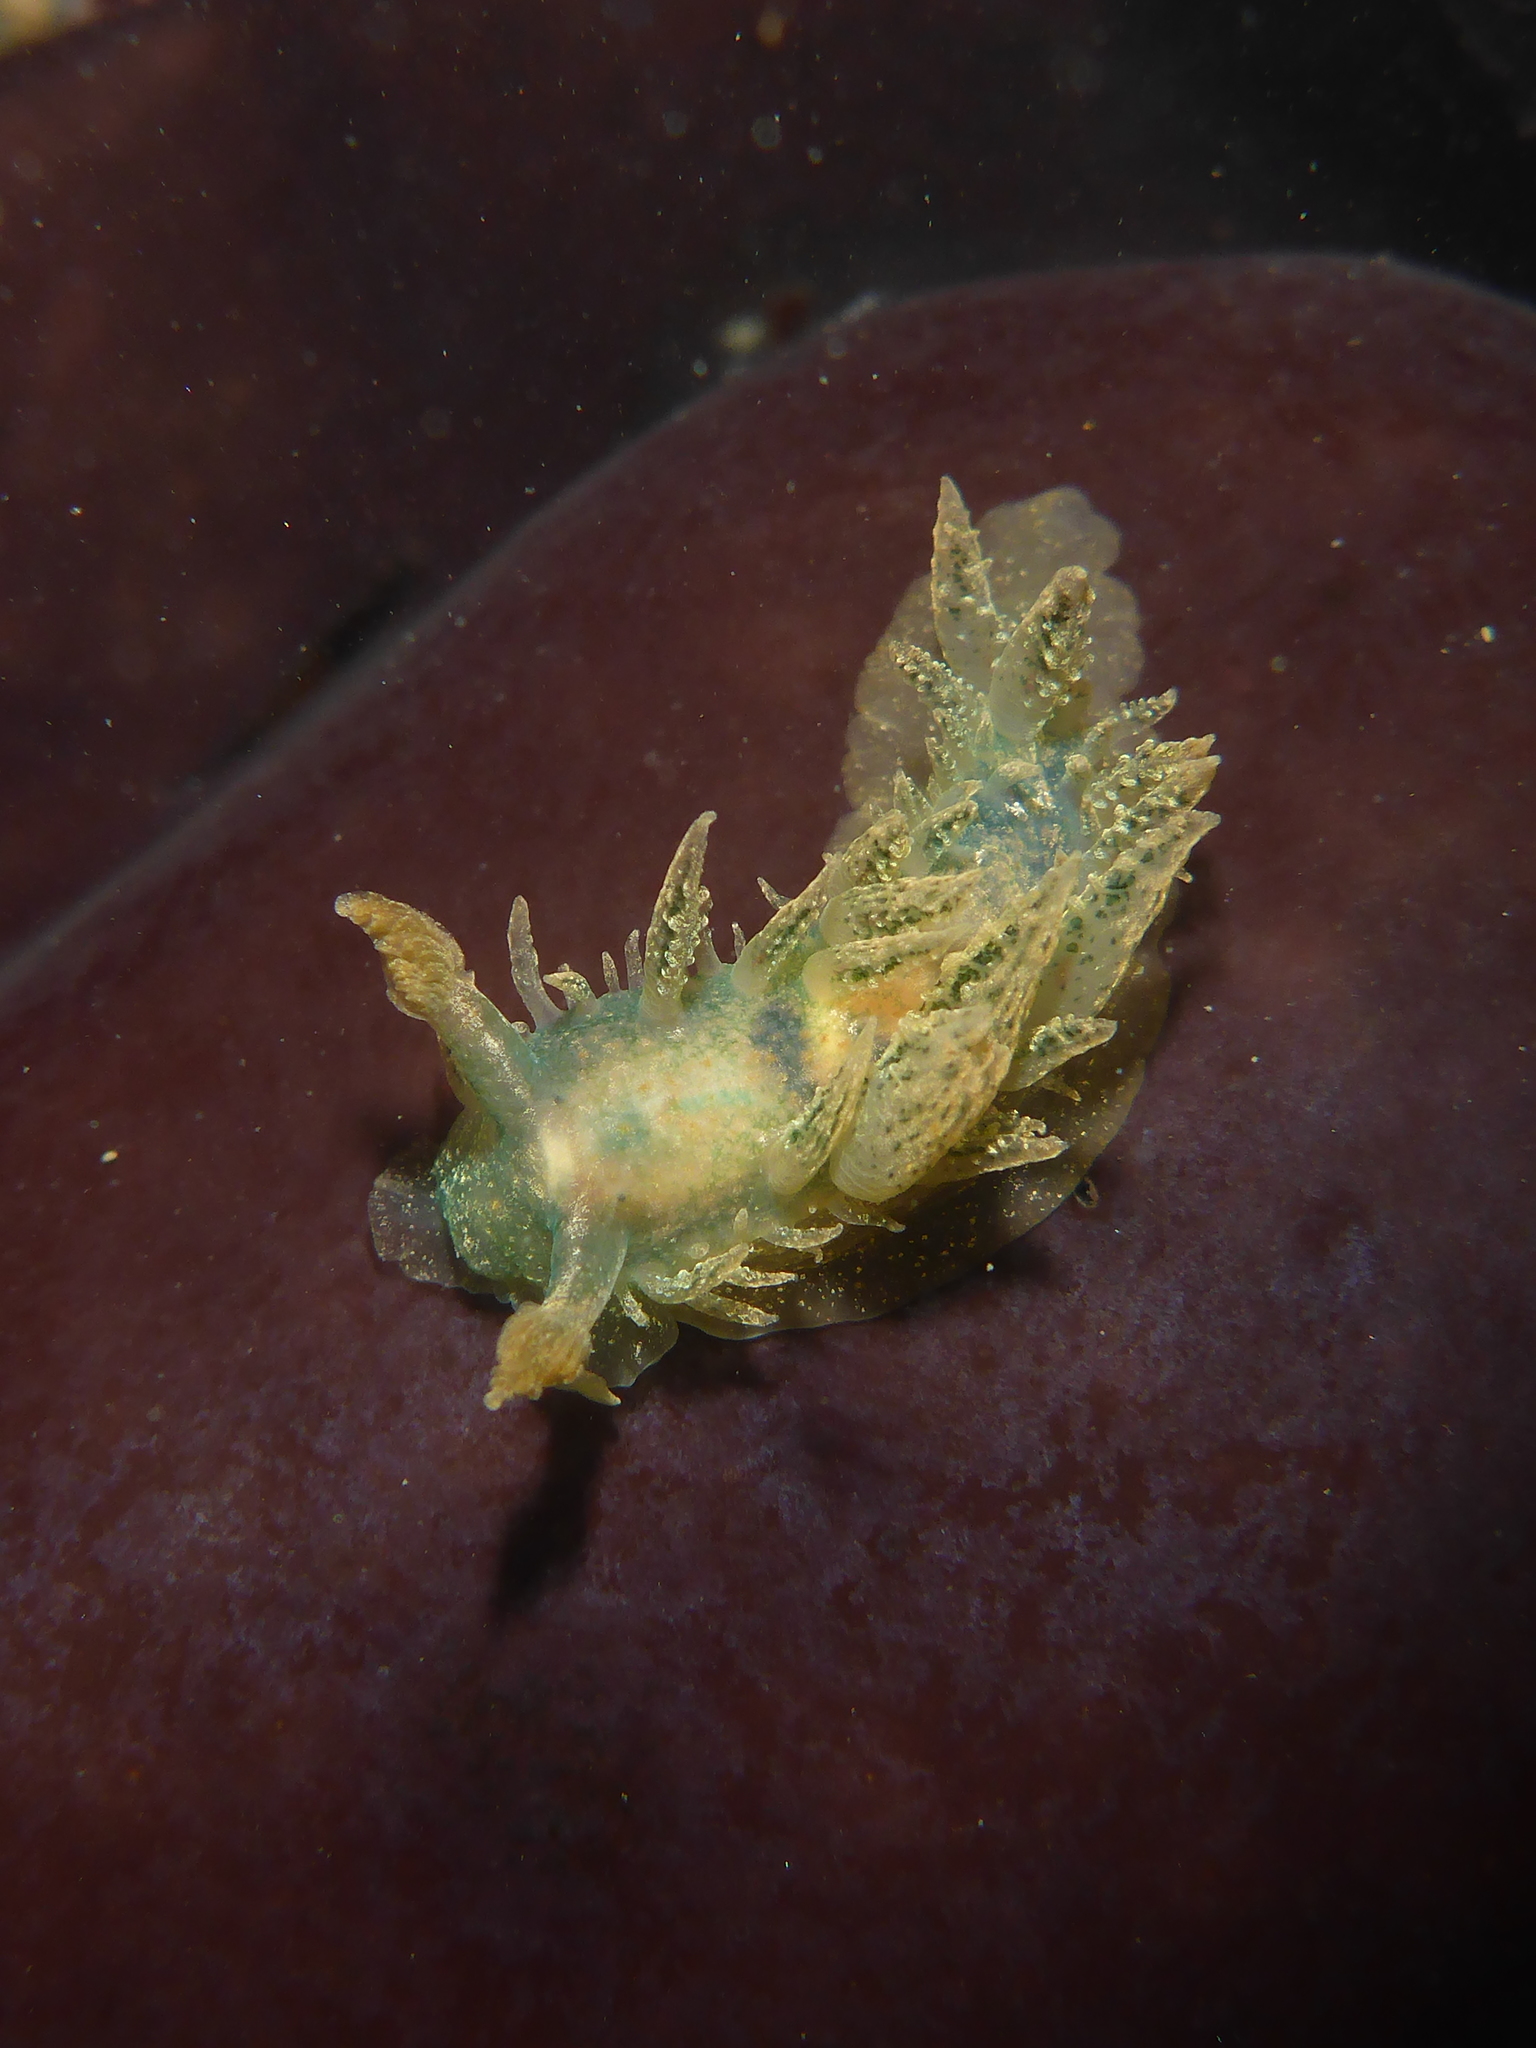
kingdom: Animalia
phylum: Mollusca
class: Gastropoda
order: Nudibranchia
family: Dironidae
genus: Dirona
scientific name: Dirona picta
